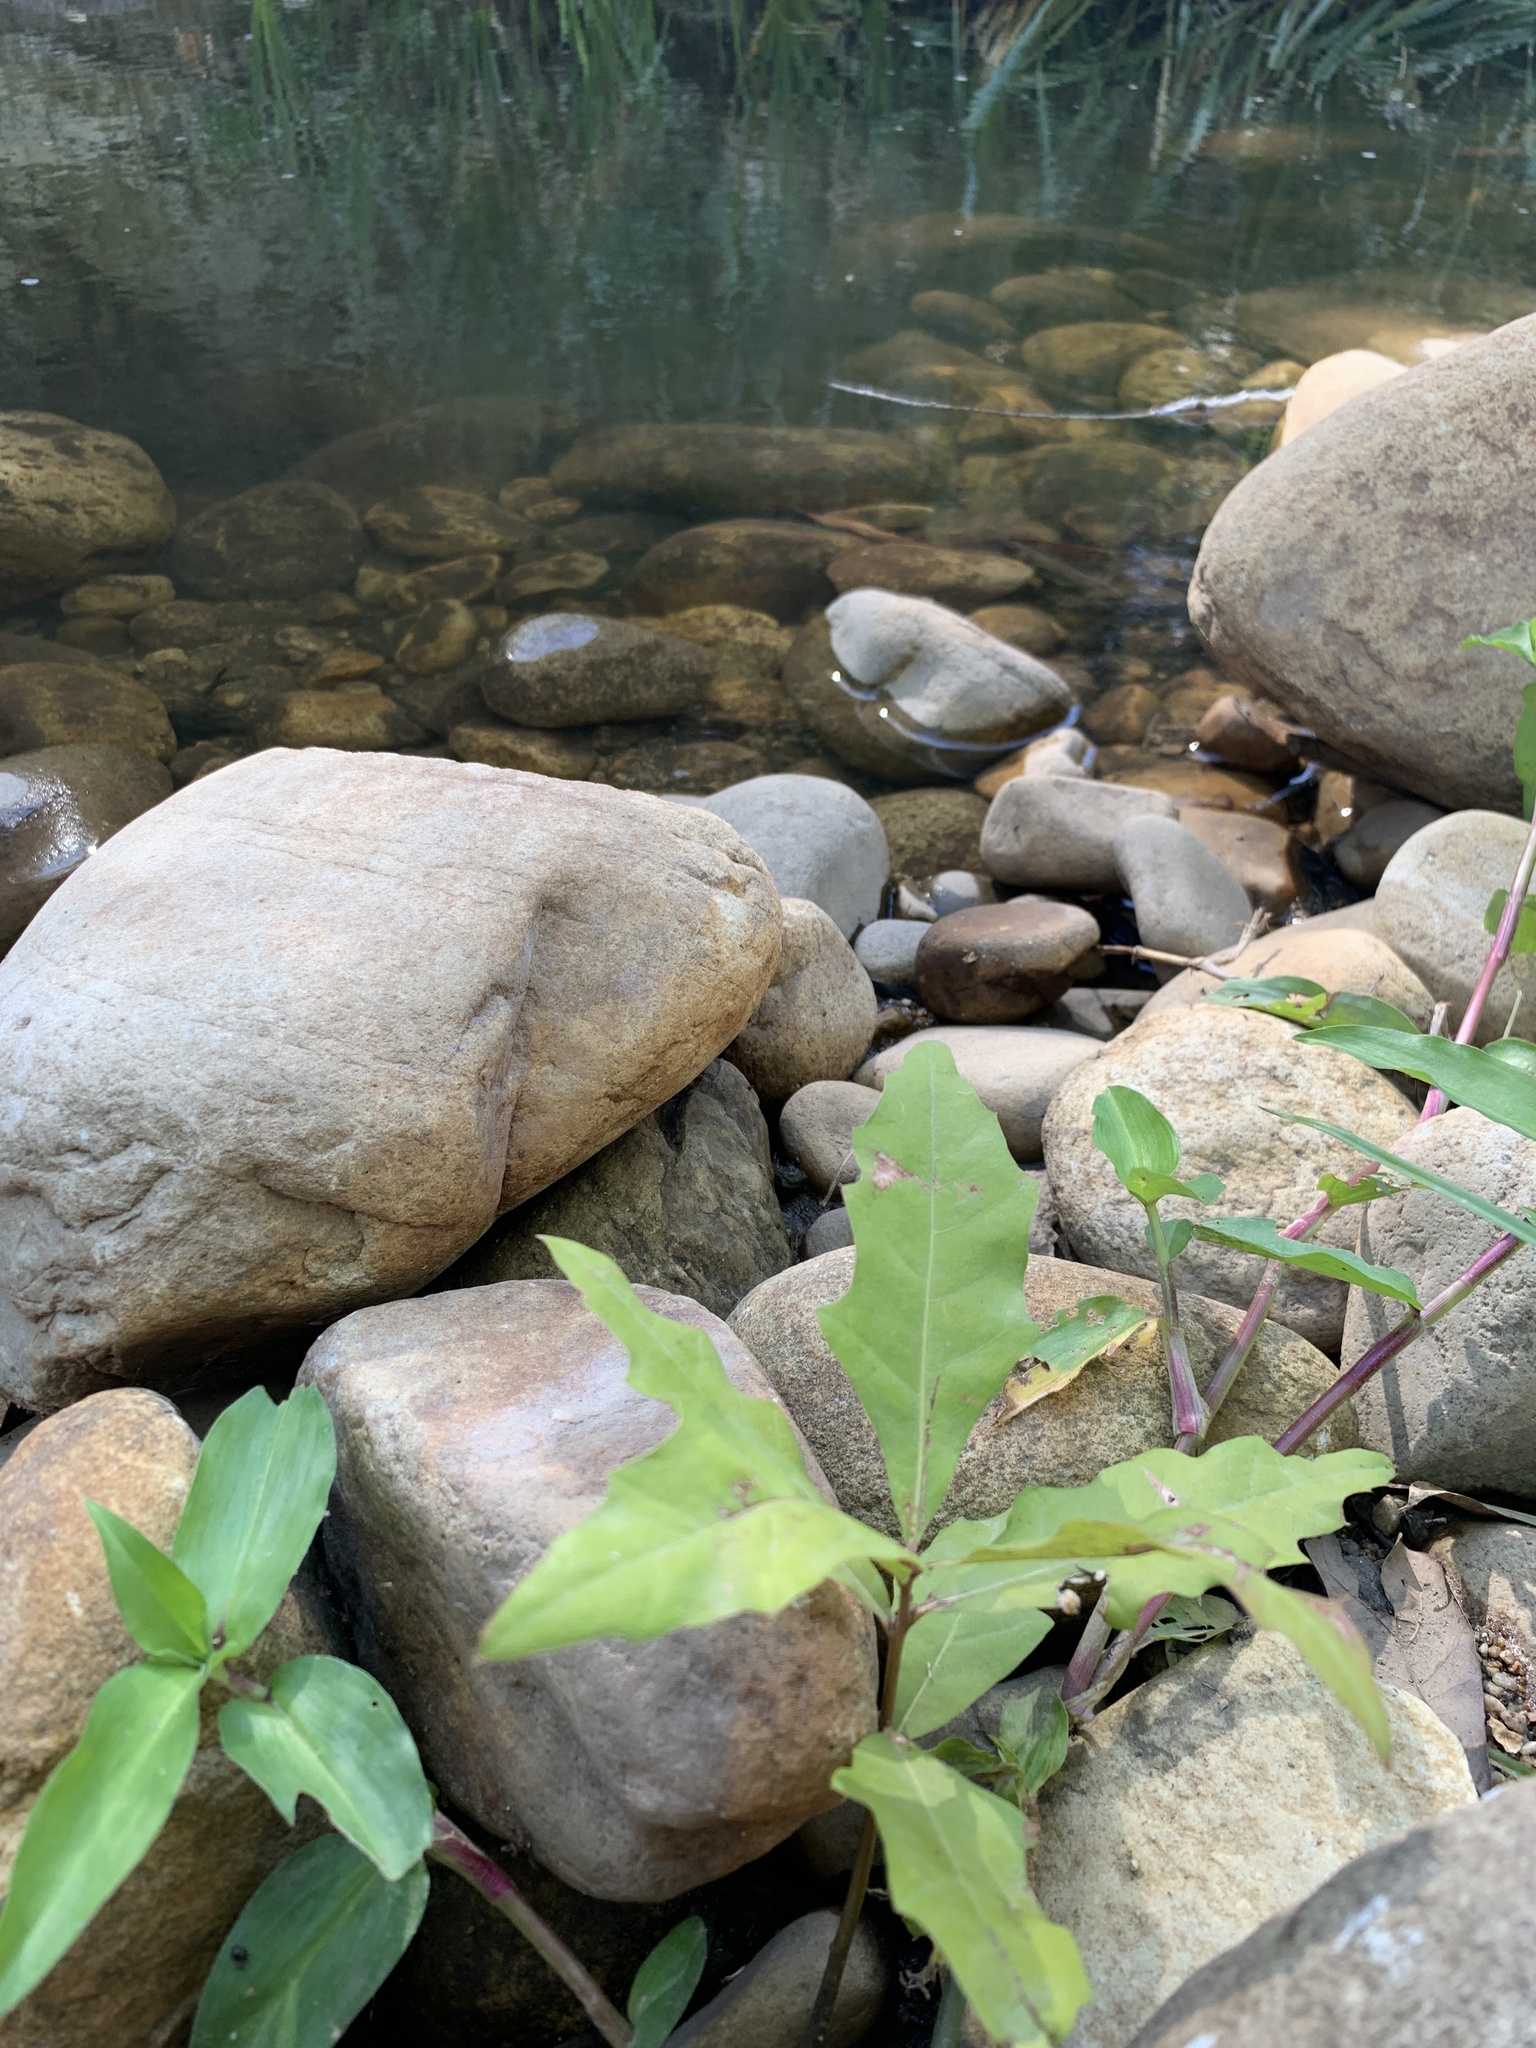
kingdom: Plantae
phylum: Tracheophyta
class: Magnoliopsida
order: Fagales
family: Fagaceae
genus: Quercus
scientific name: Quercus palustris
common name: Pin oak
